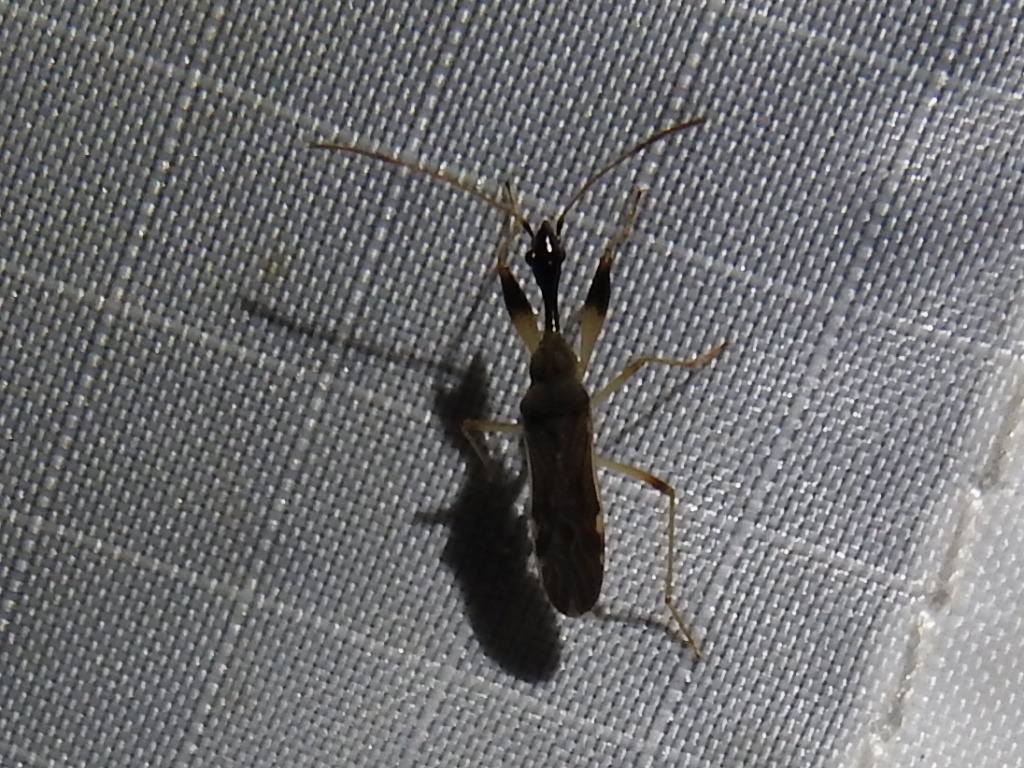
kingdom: Animalia
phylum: Arthropoda
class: Insecta
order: Hemiptera
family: Rhyparochromidae
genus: Myodocha
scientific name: Myodocha serripes
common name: Long-necked seed bug
